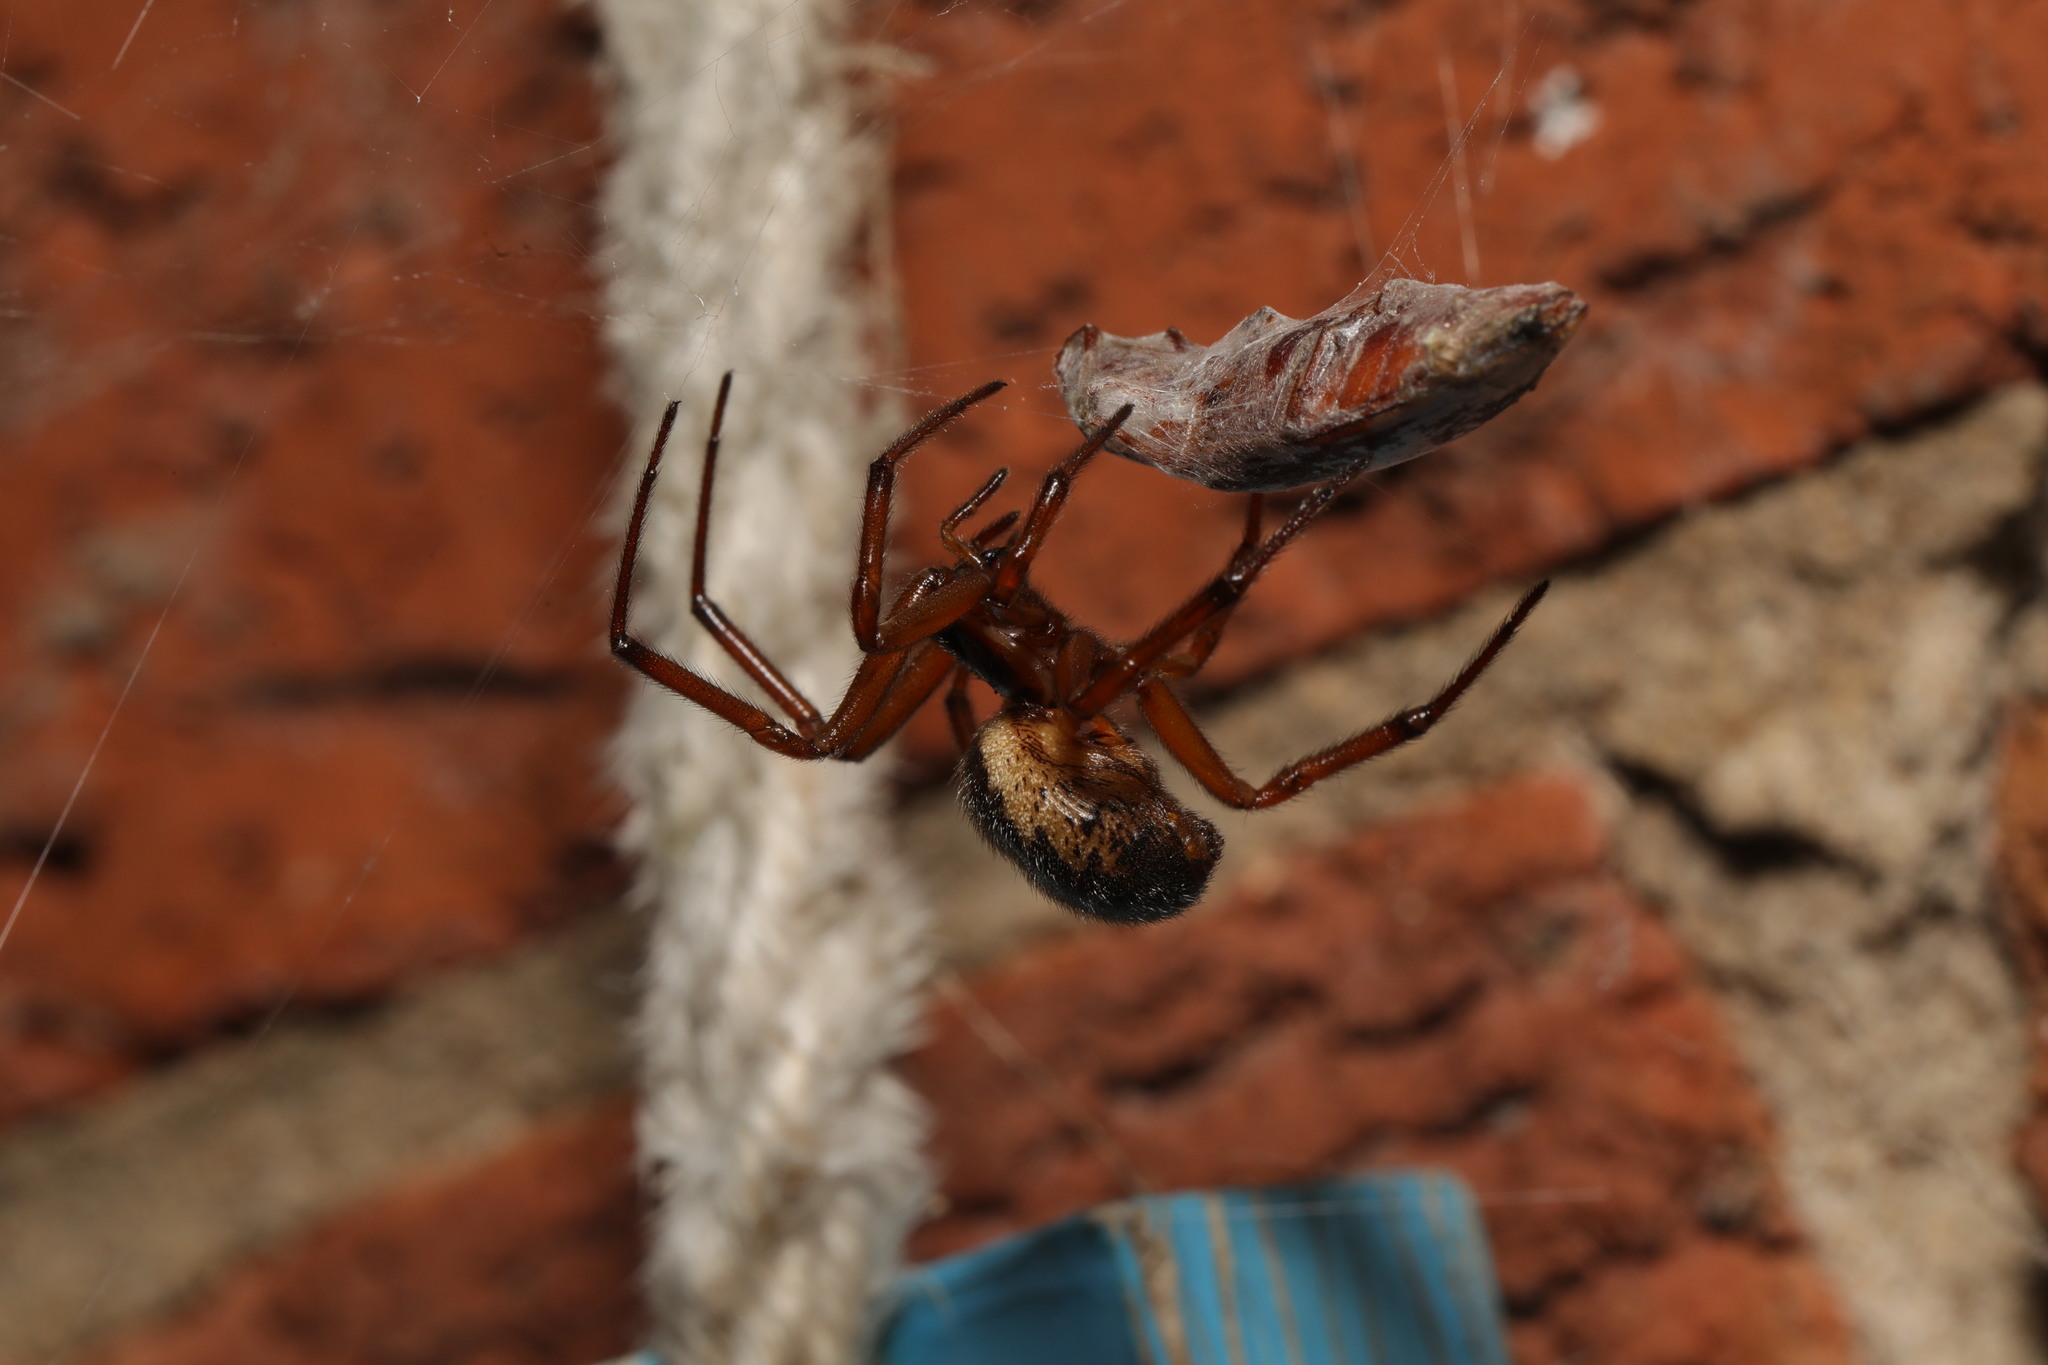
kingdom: Animalia
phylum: Arthropoda
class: Arachnida
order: Araneae
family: Theridiidae
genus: Steatoda
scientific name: Steatoda nobilis
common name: Cobweb weaver
